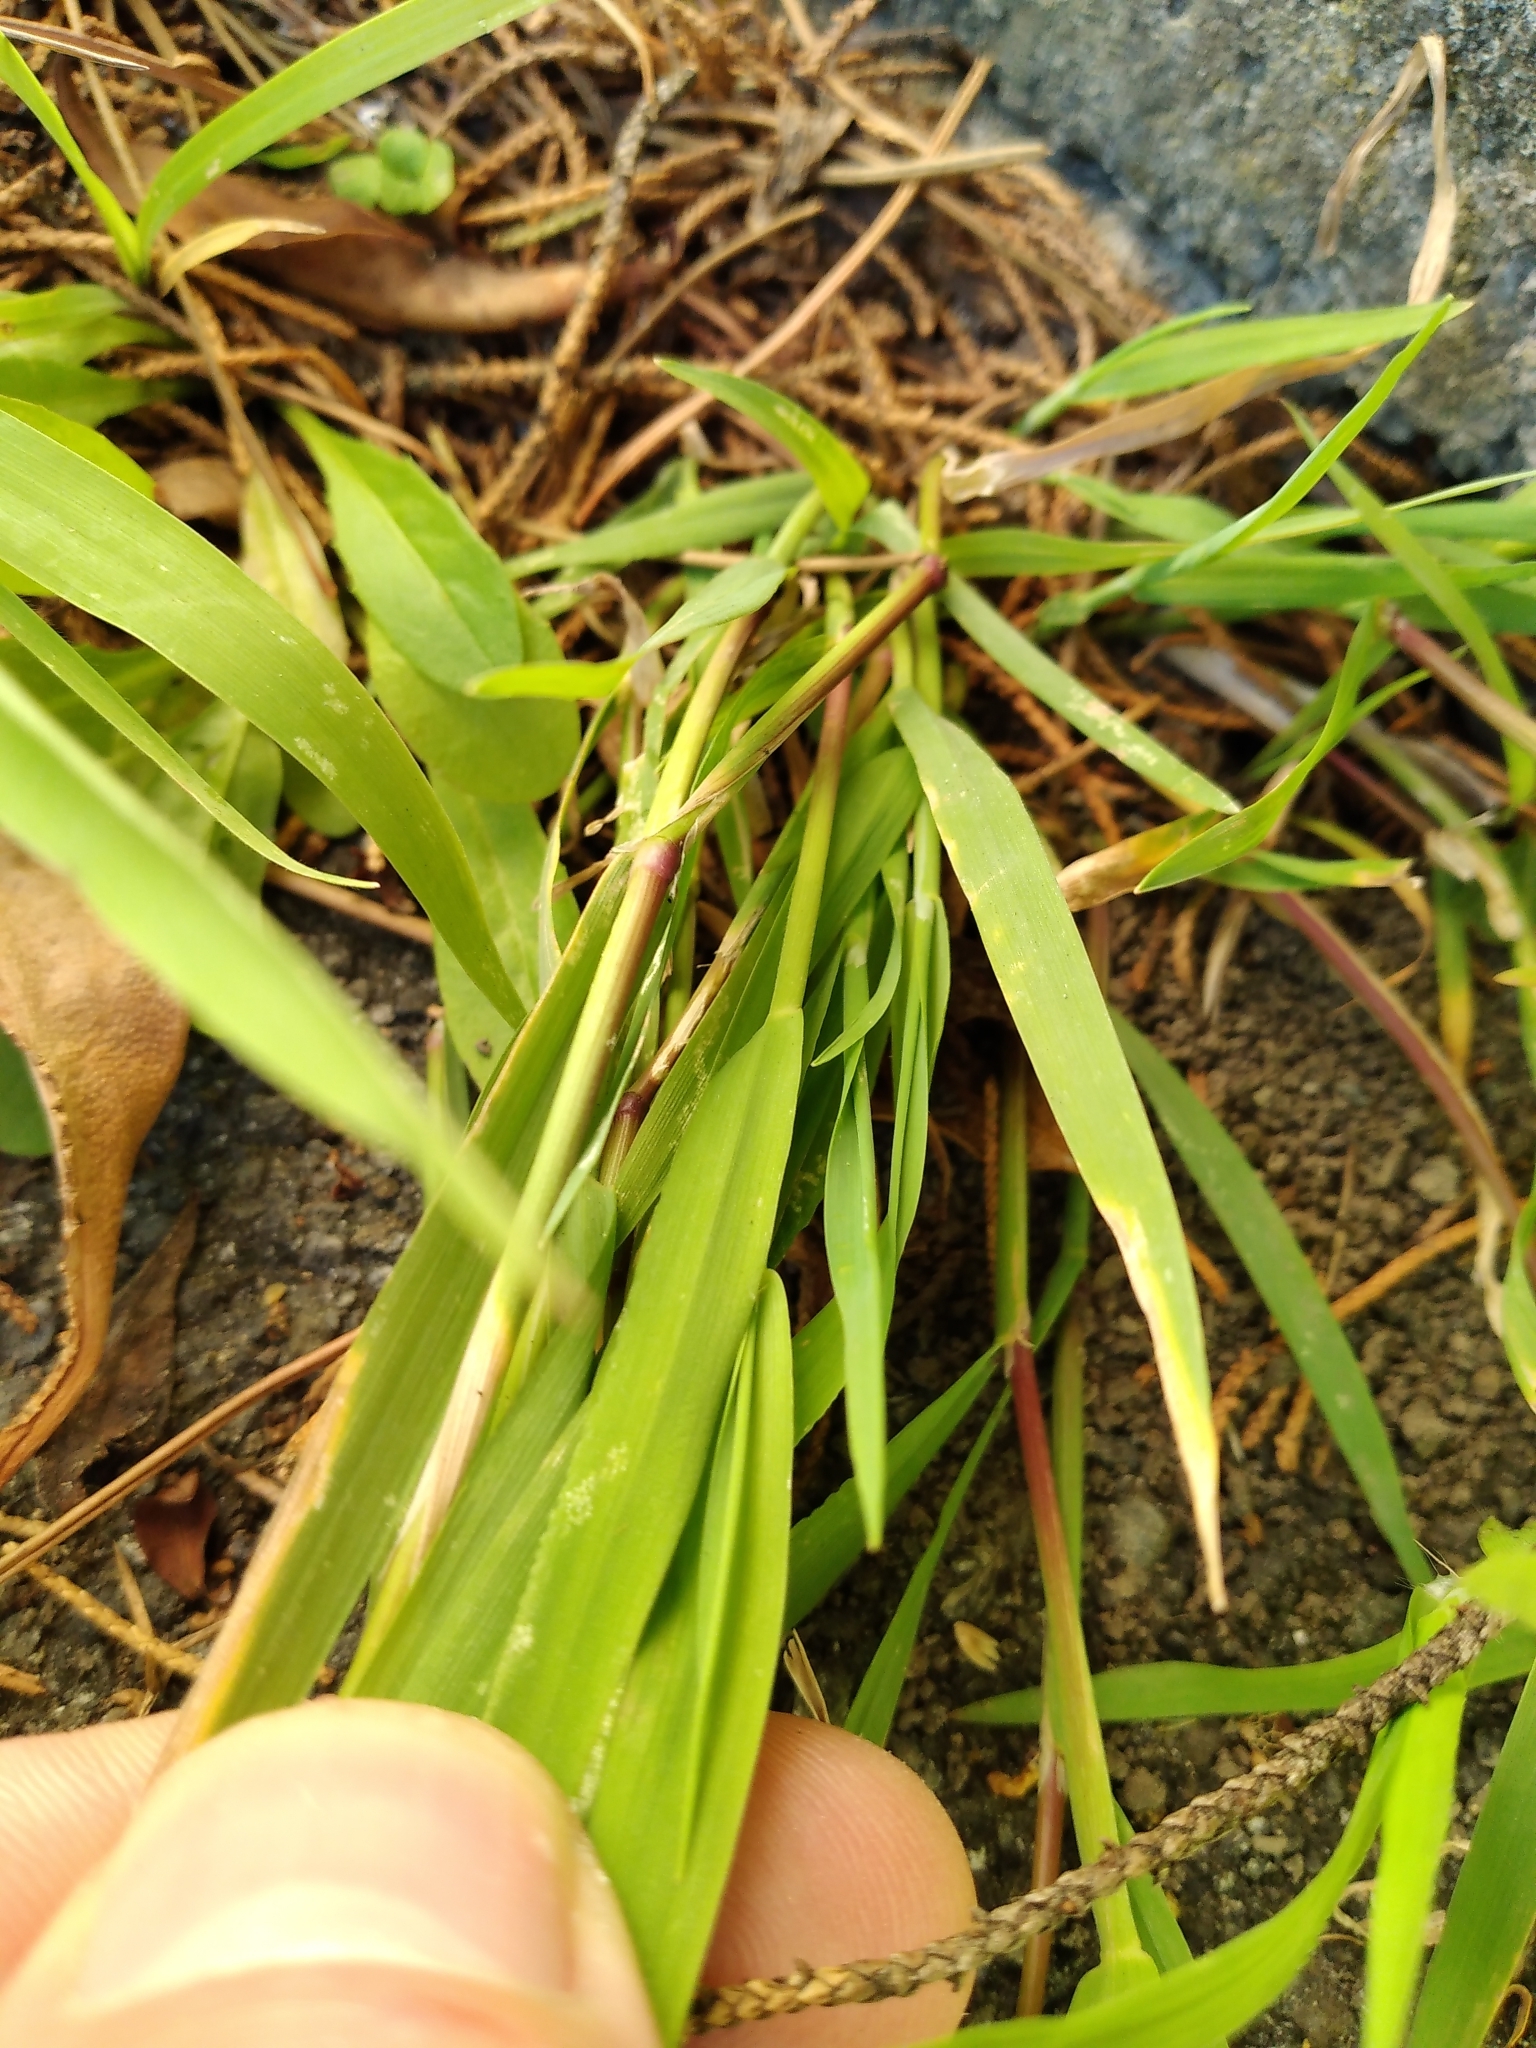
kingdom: Plantae
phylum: Tracheophyta
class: Liliopsida
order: Poales
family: Poaceae
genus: Polypogon
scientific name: Polypogon viridis
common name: Water bent
